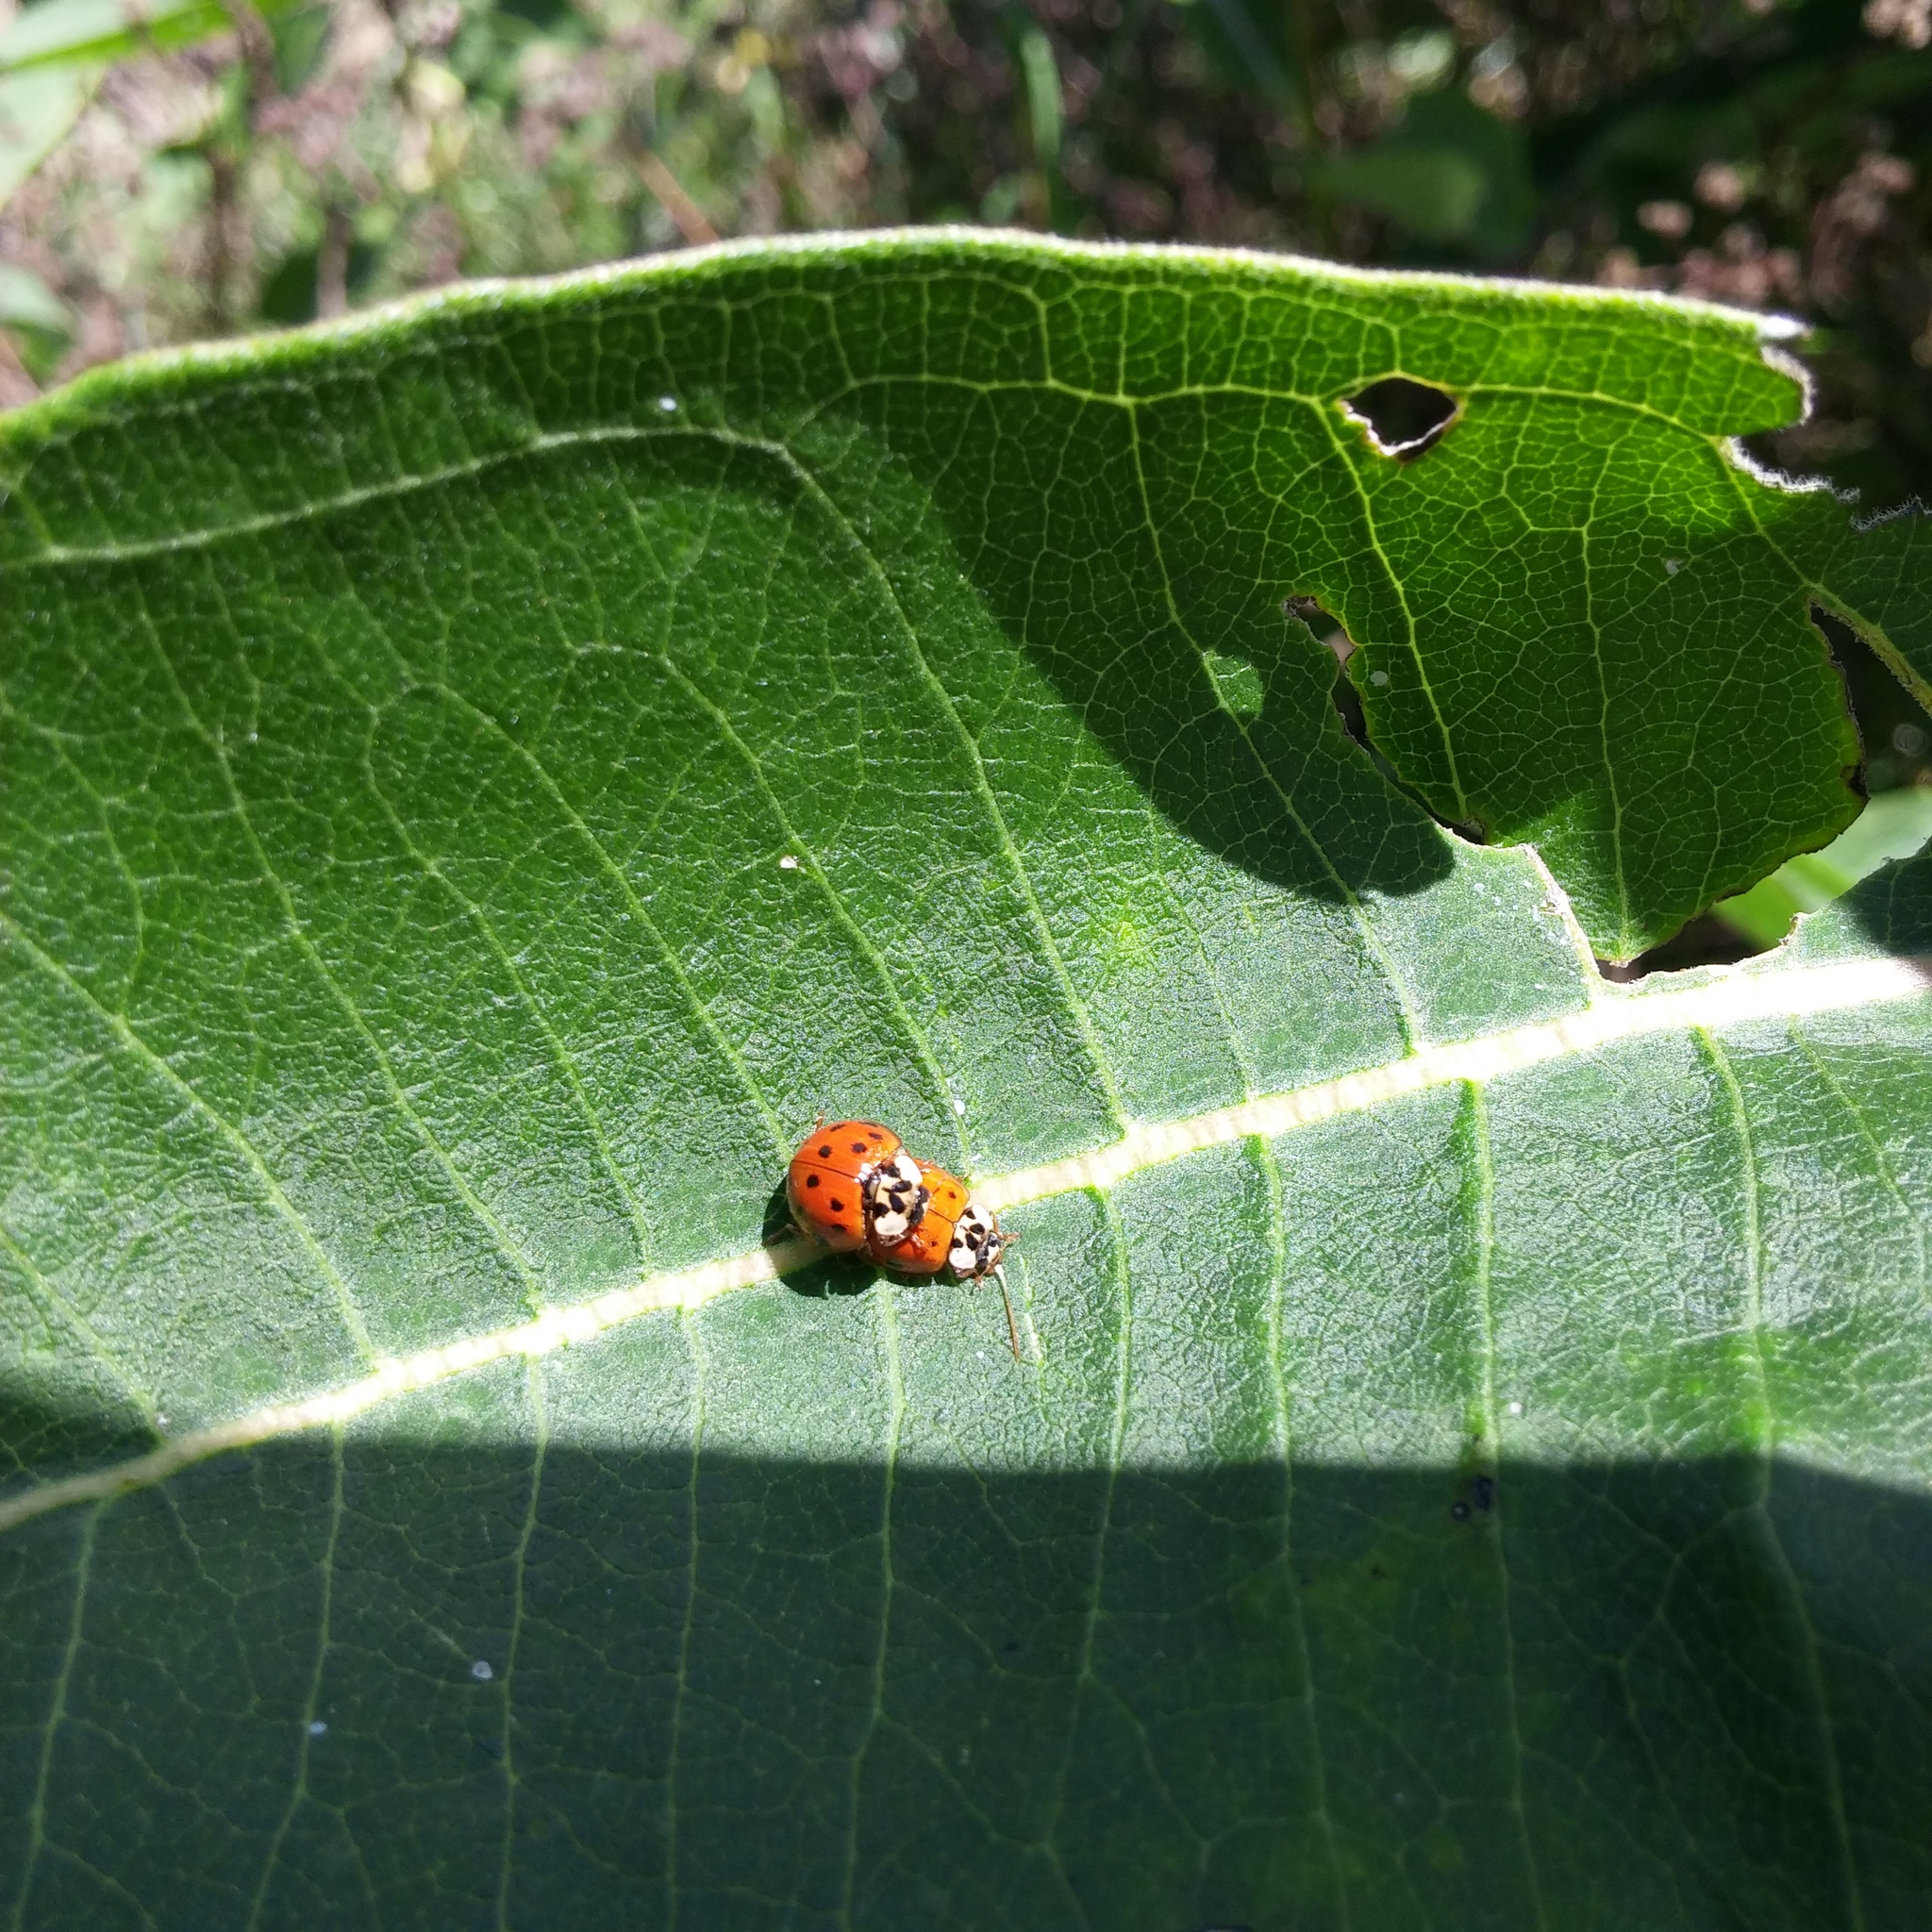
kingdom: Animalia
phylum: Arthropoda
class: Insecta
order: Coleoptera
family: Coccinellidae
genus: Harmonia
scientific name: Harmonia axyridis
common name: Harlequin ladybird
